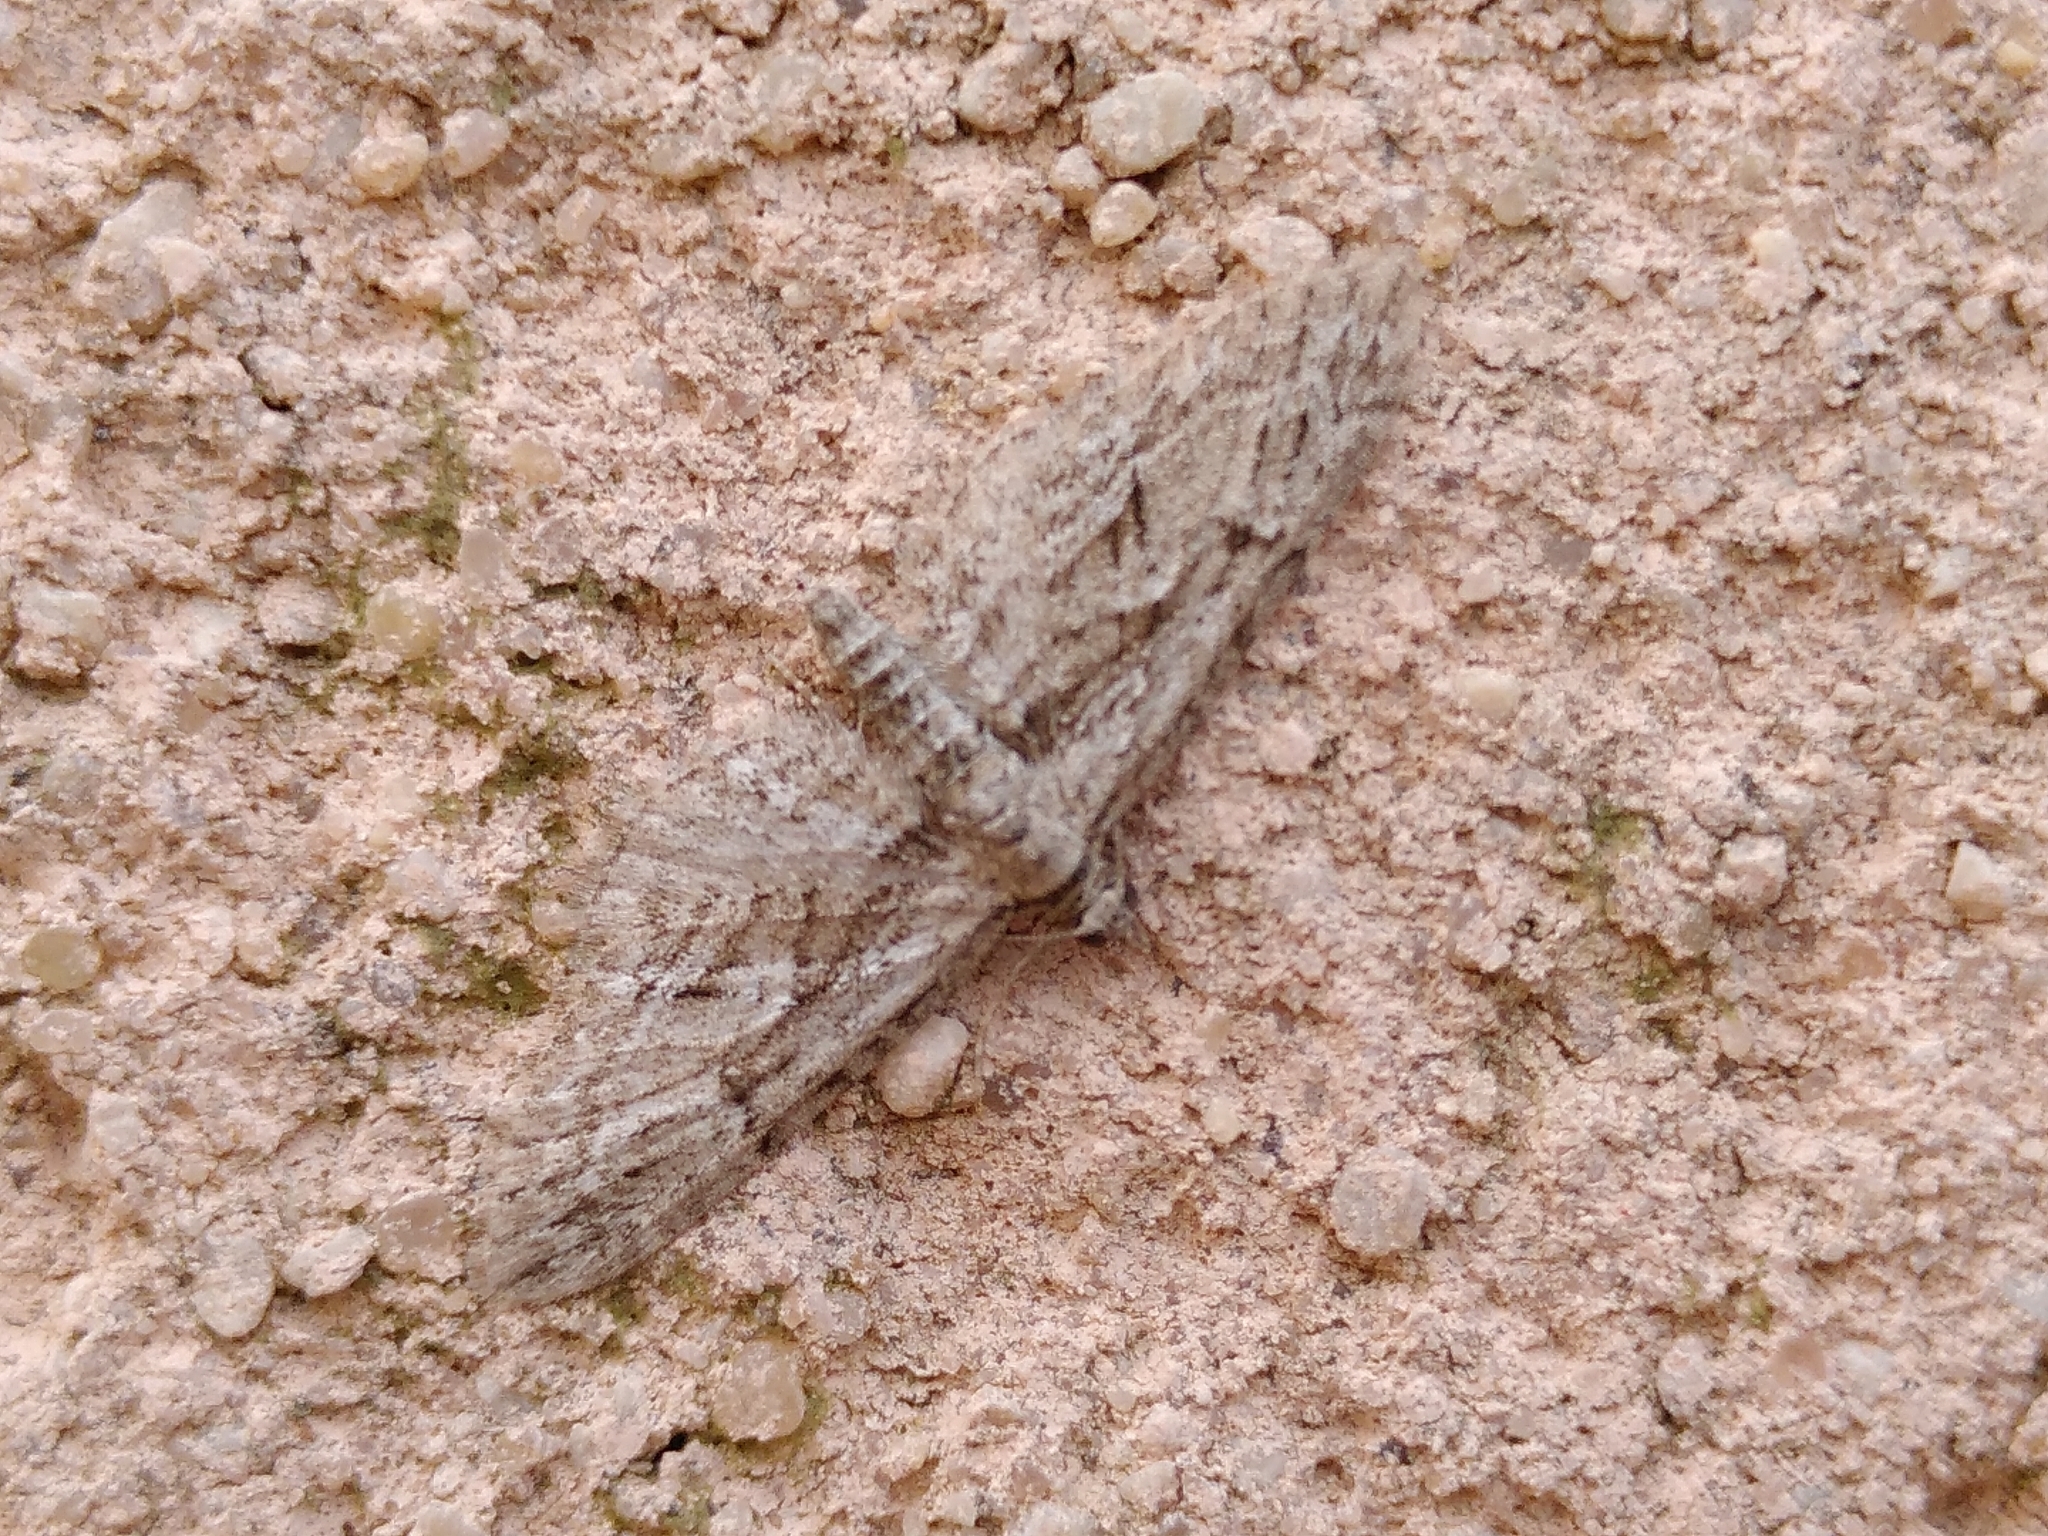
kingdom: Animalia
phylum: Arthropoda
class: Insecta
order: Lepidoptera
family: Geometridae
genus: Eupithecia
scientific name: Eupithecia oxycedrata
